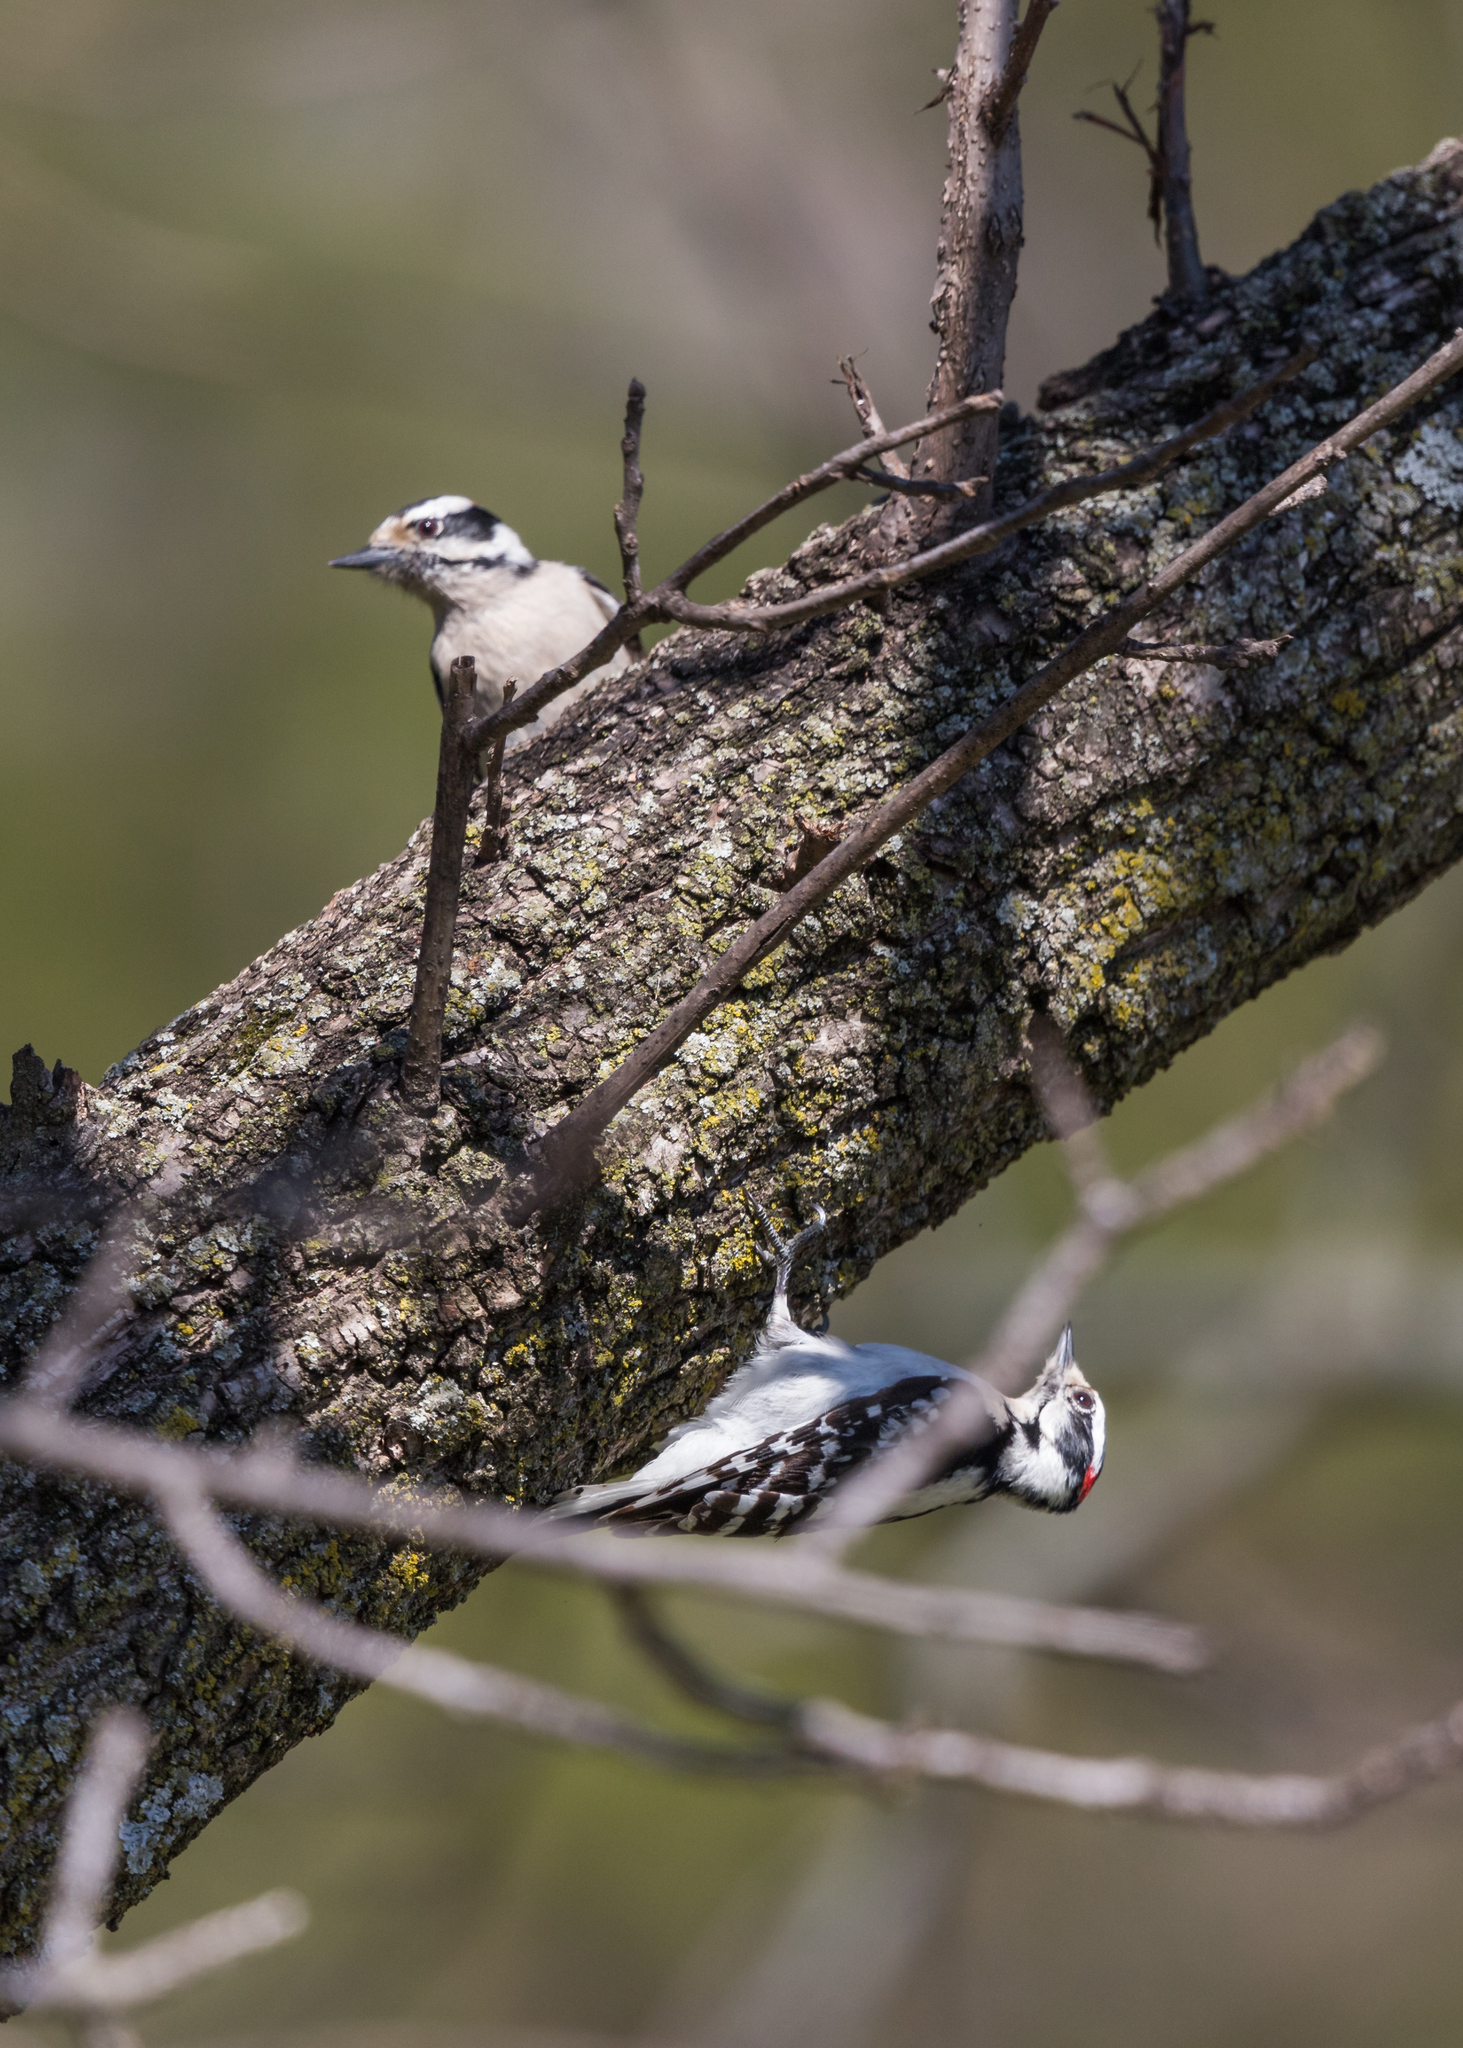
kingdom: Animalia
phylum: Chordata
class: Aves
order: Piciformes
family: Picidae
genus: Dryobates
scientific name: Dryobates pubescens
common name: Downy woodpecker
